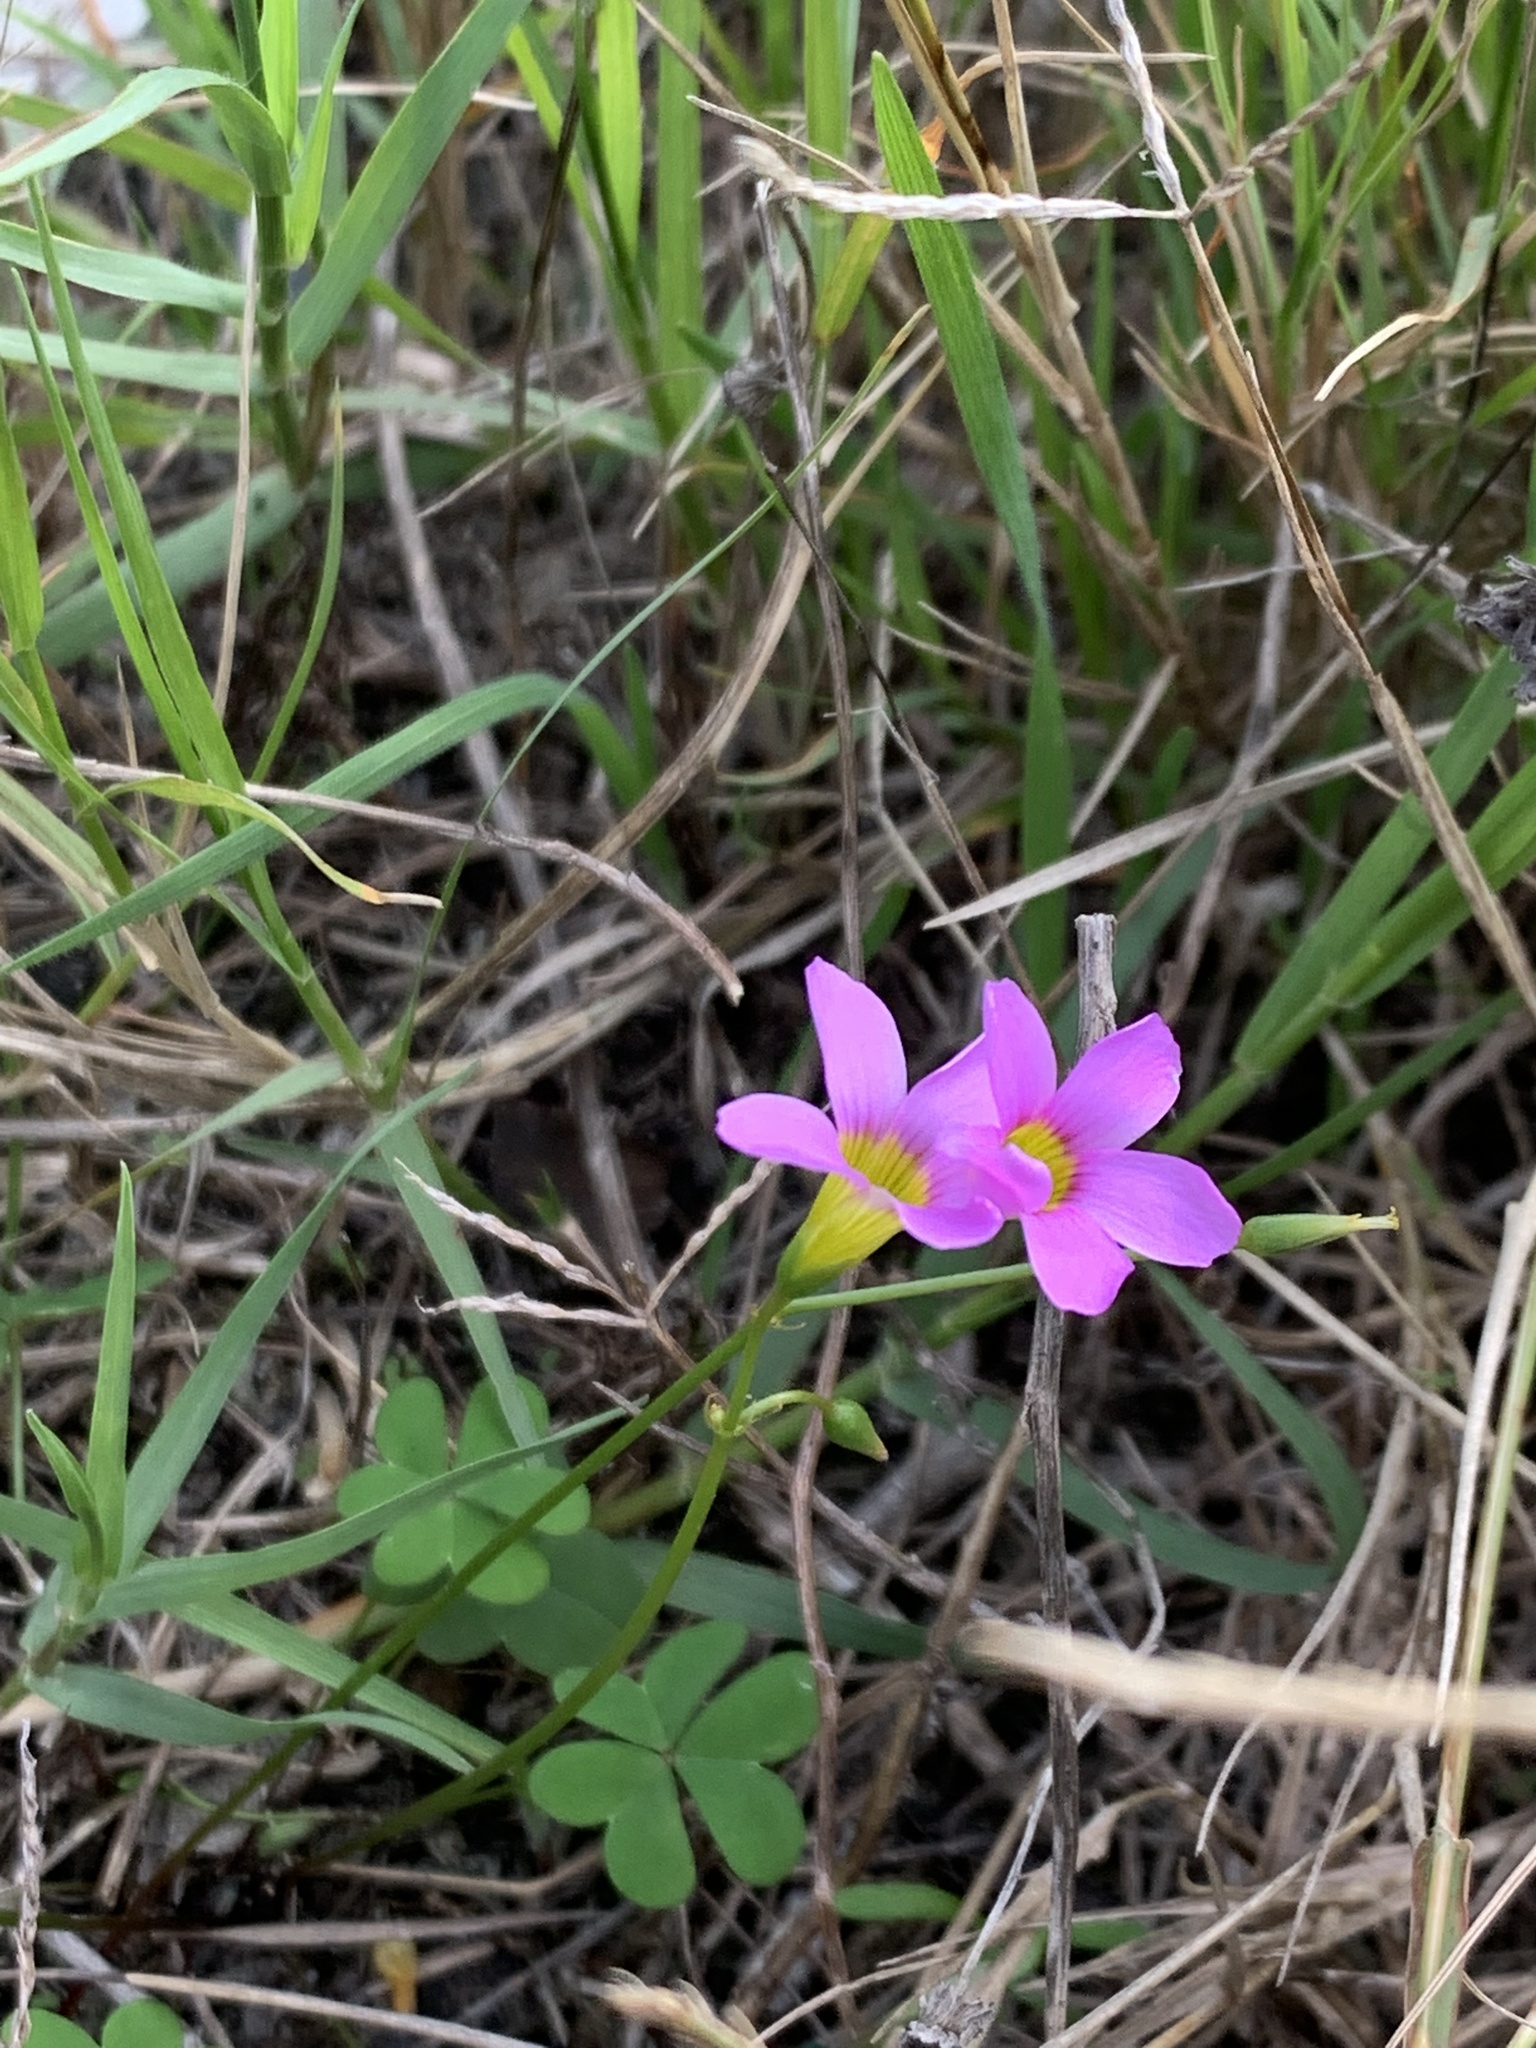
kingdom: Plantae
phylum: Tracheophyta
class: Magnoliopsida
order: Oxalidales
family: Oxalidaceae
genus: Oxalis
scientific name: Oxalis caprina
